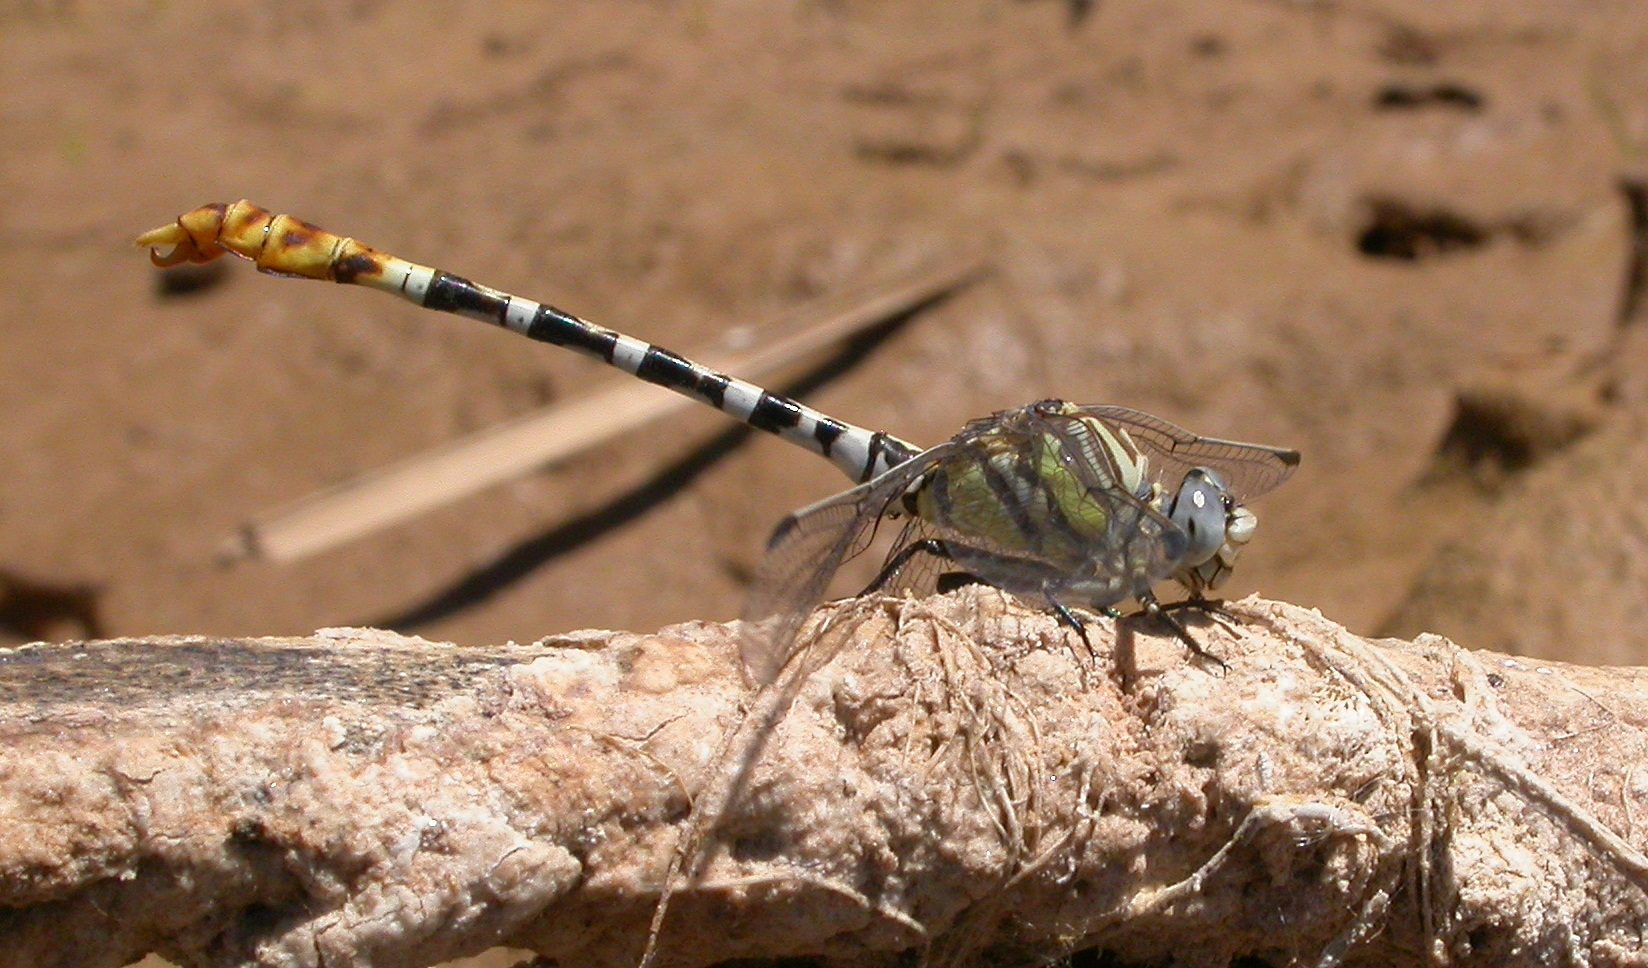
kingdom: Animalia
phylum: Arthropoda
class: Insecta
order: Odonata
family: Gomphidae
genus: Erpetogomphus
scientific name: Erpetogomphus compositus
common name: White-belted ringtail
